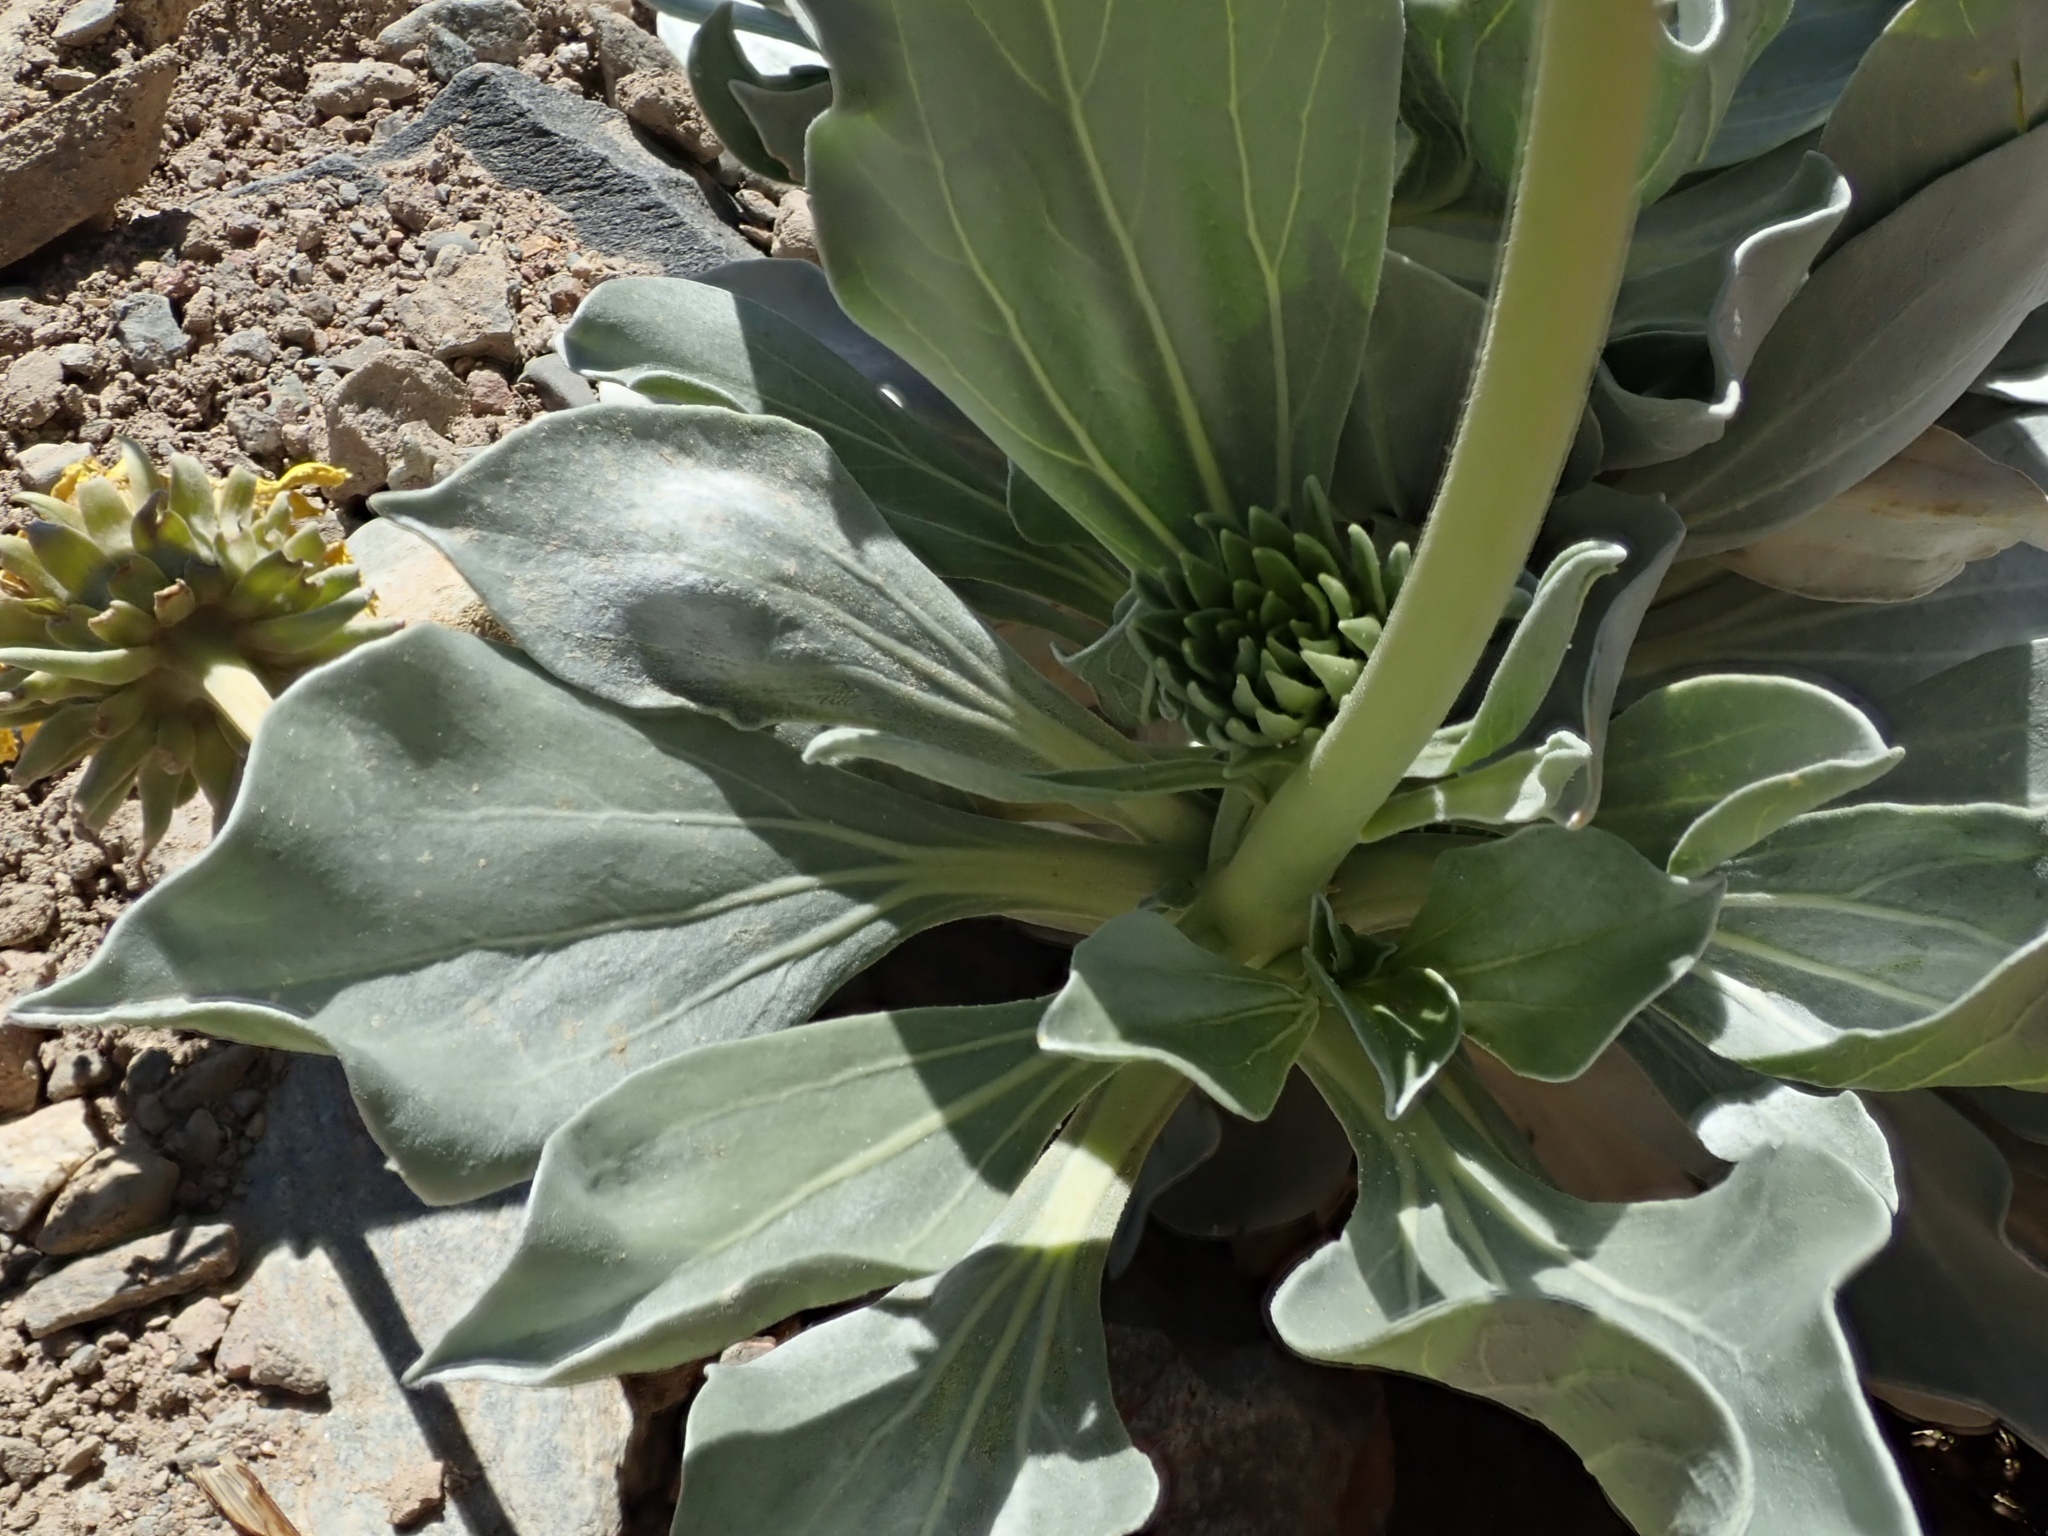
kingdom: Plantae
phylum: Tracheophyta
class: Magnoliopsida
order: Asterales
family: Asteraceae
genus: Enceliopsis
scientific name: Enceliopsis covillei
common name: Panamint daisy
